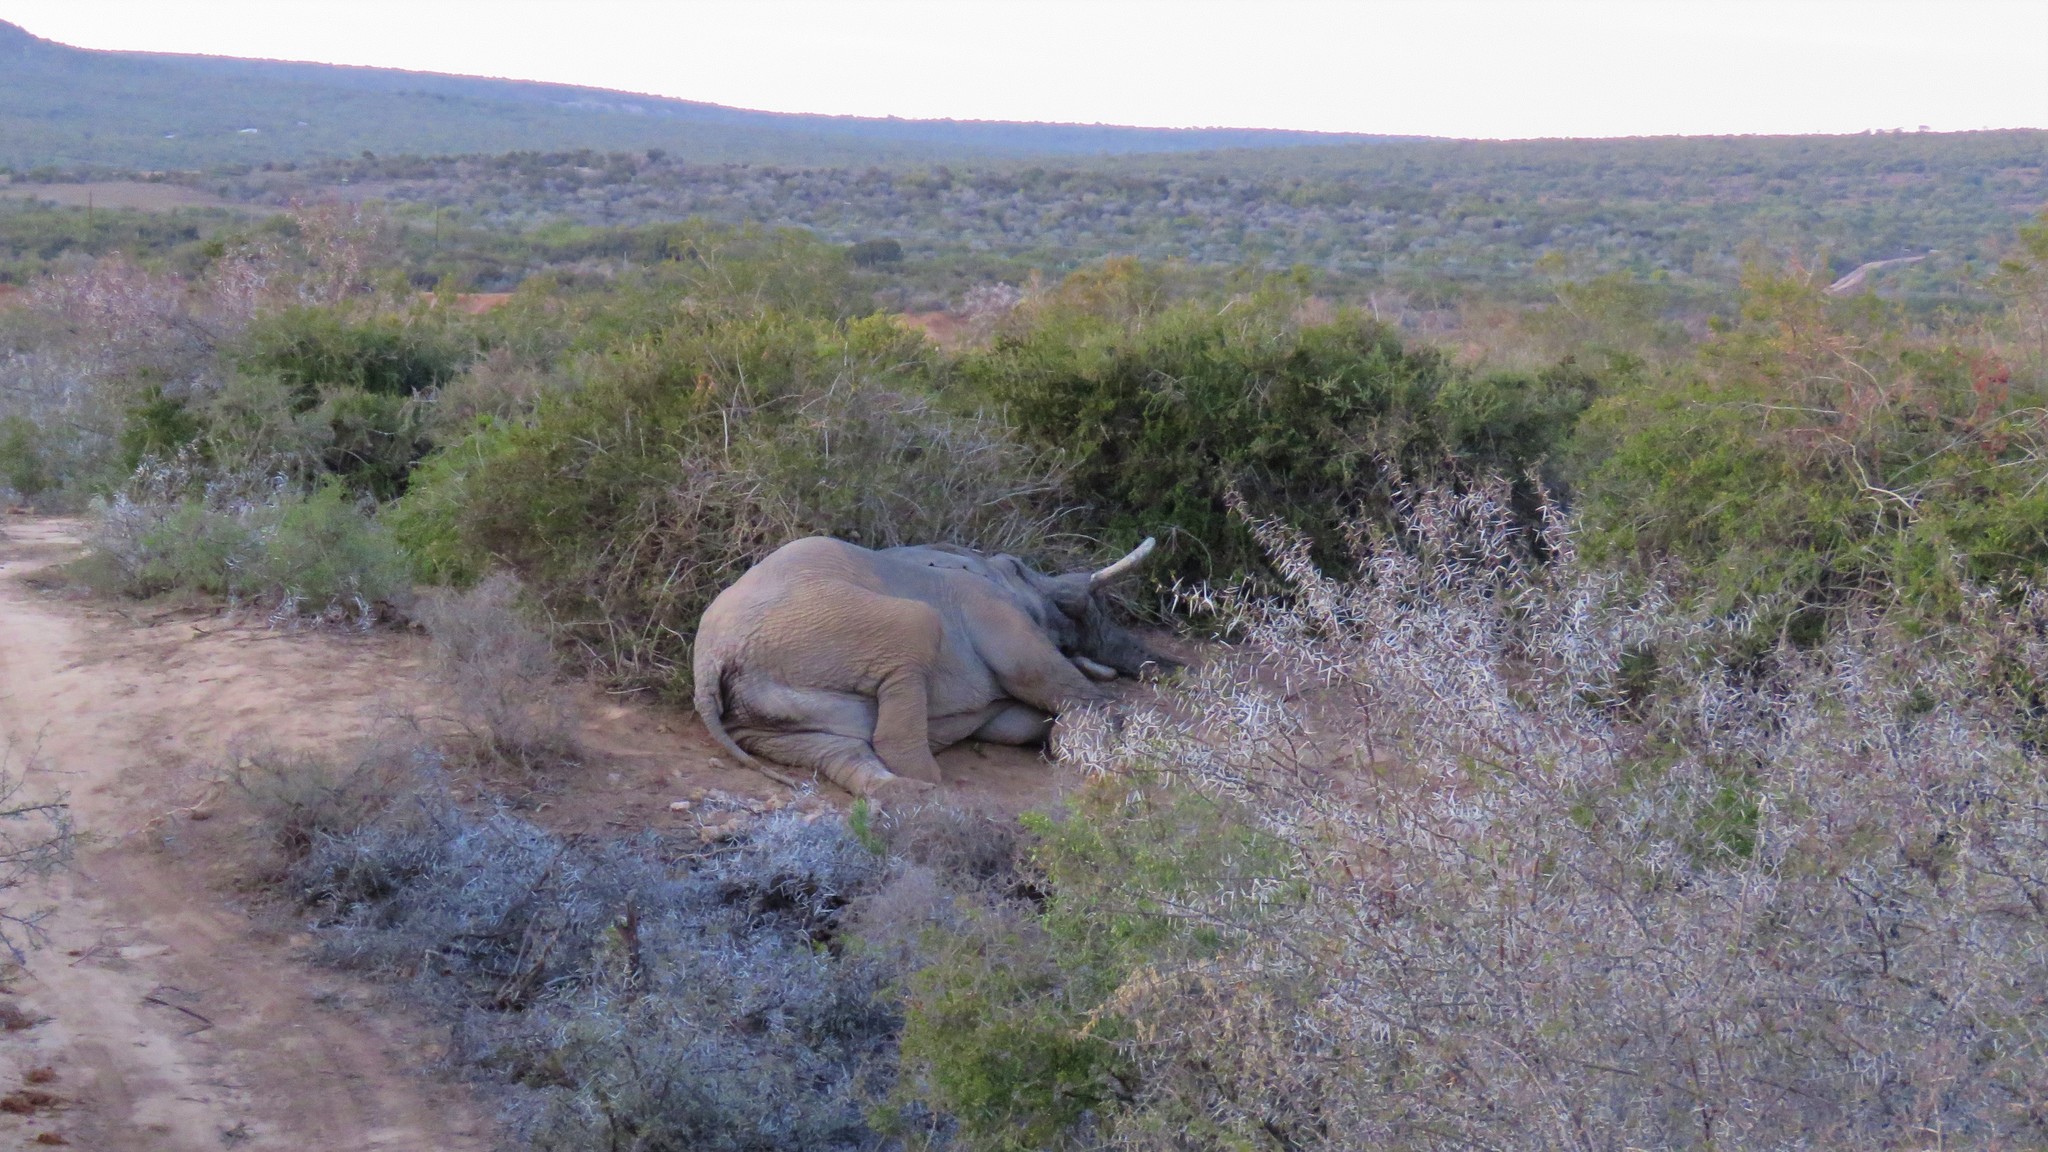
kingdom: Animalia
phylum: Chordata
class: Mammalia
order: Proboscidea
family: Elephantidae
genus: Loxodonta
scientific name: Loxodonta africana
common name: African elephant
